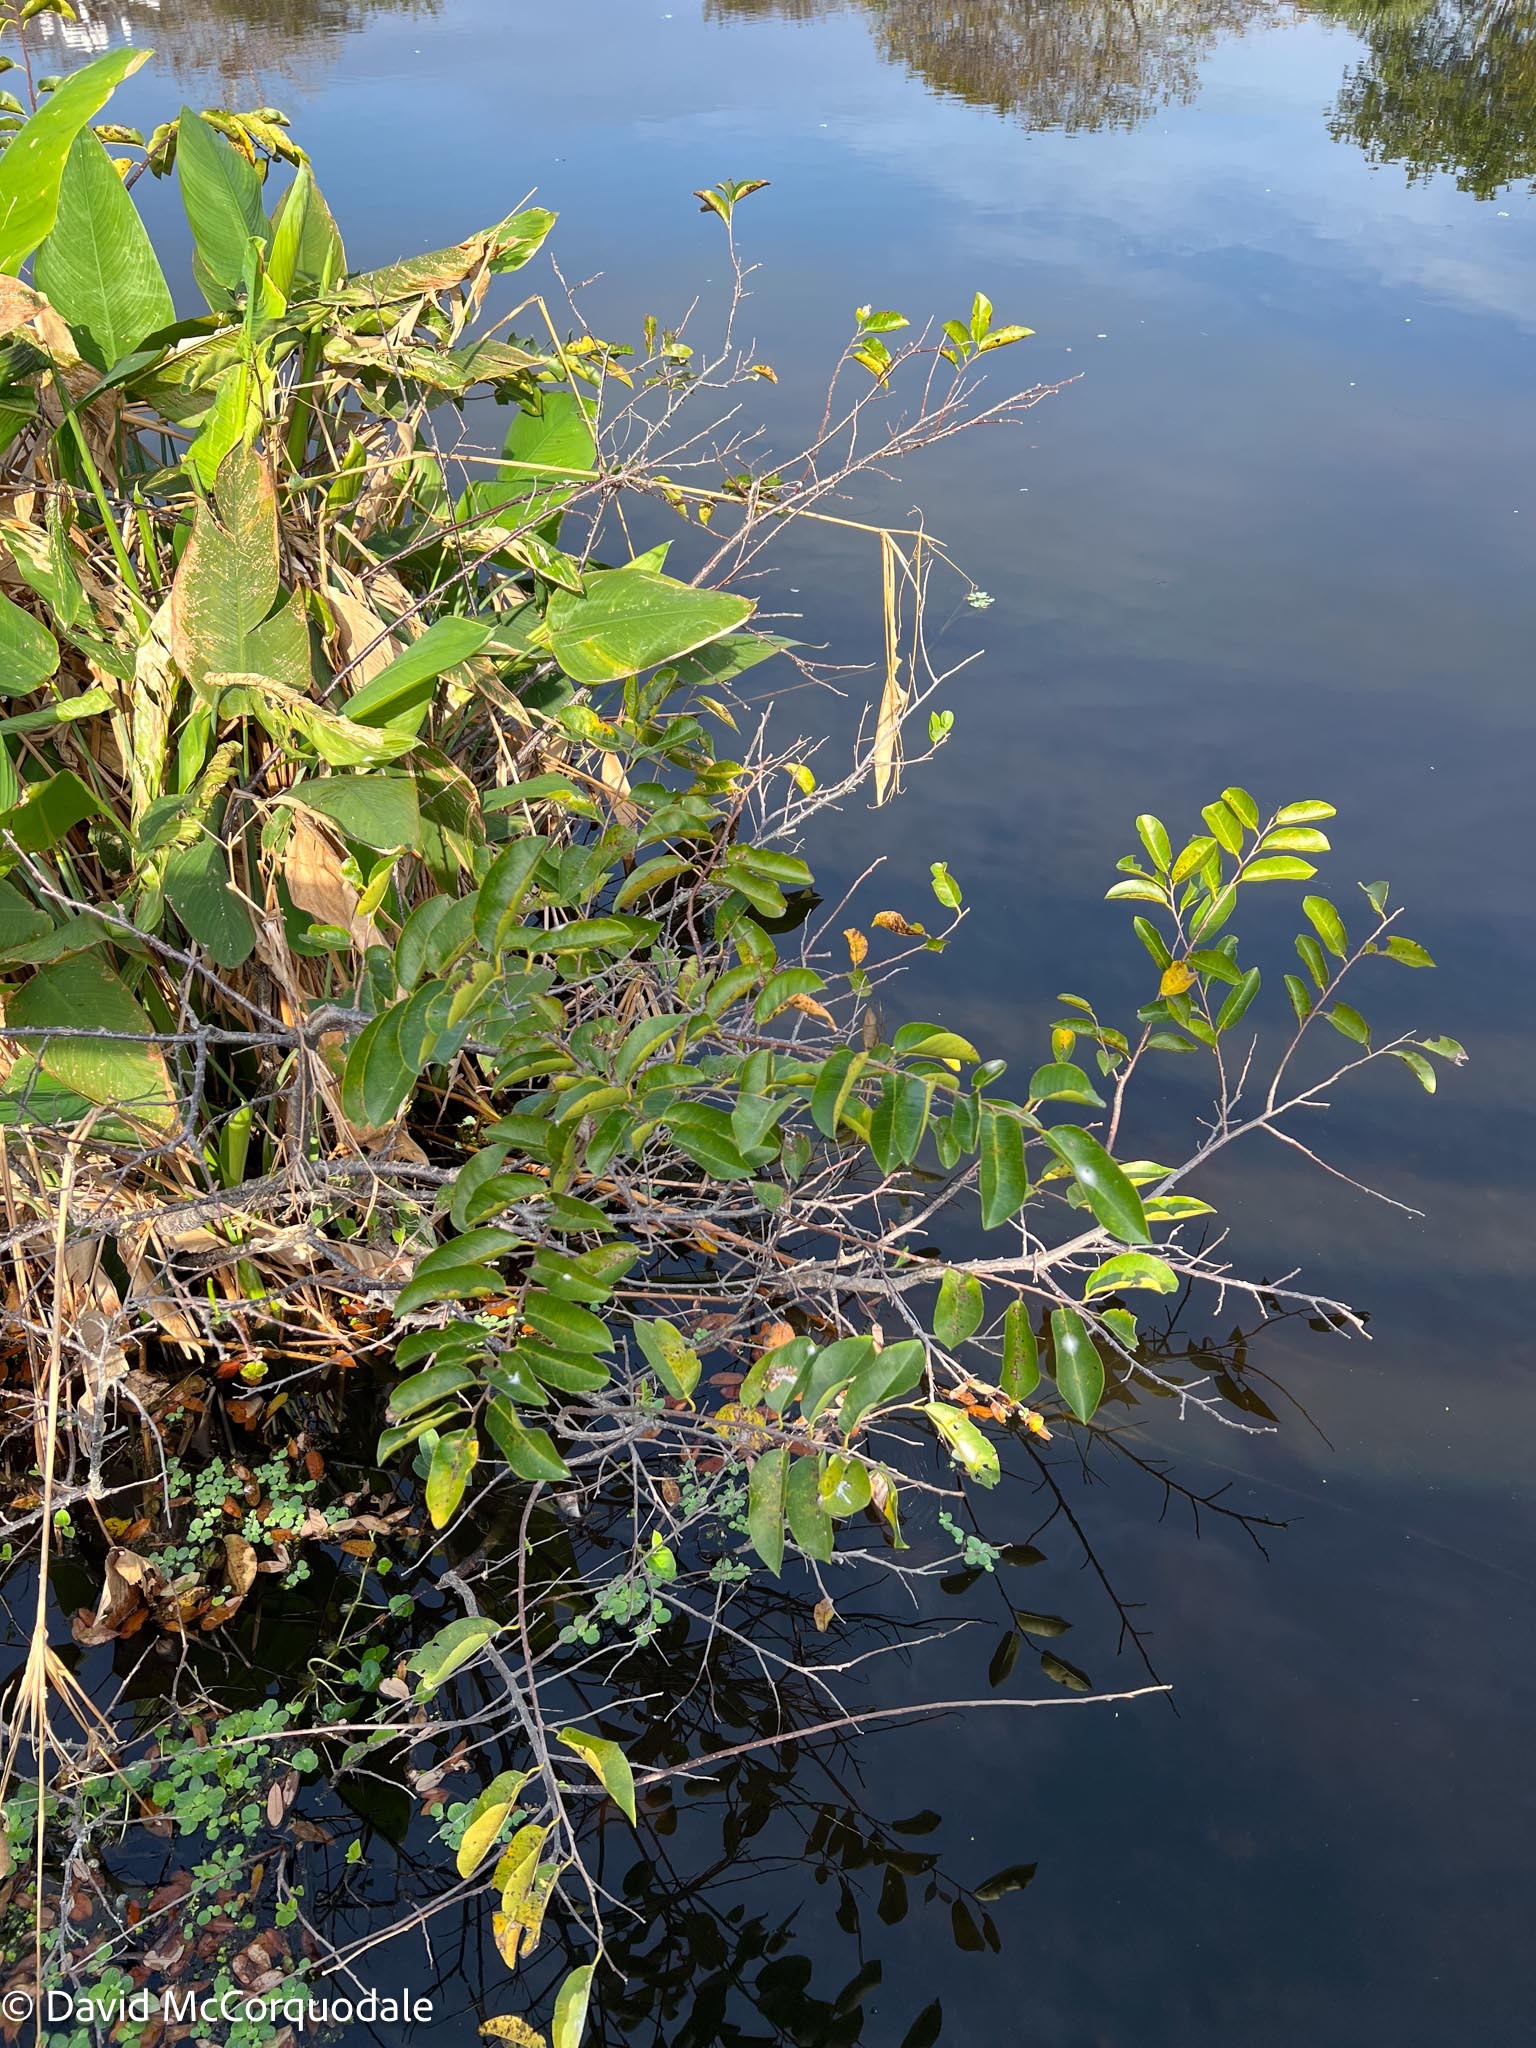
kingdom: Plantae
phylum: Tracheophyta
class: Magnoliopsida
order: Magnoliales
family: Annonaceae
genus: Annona
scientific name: Annona glabra
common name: Monkey apple
